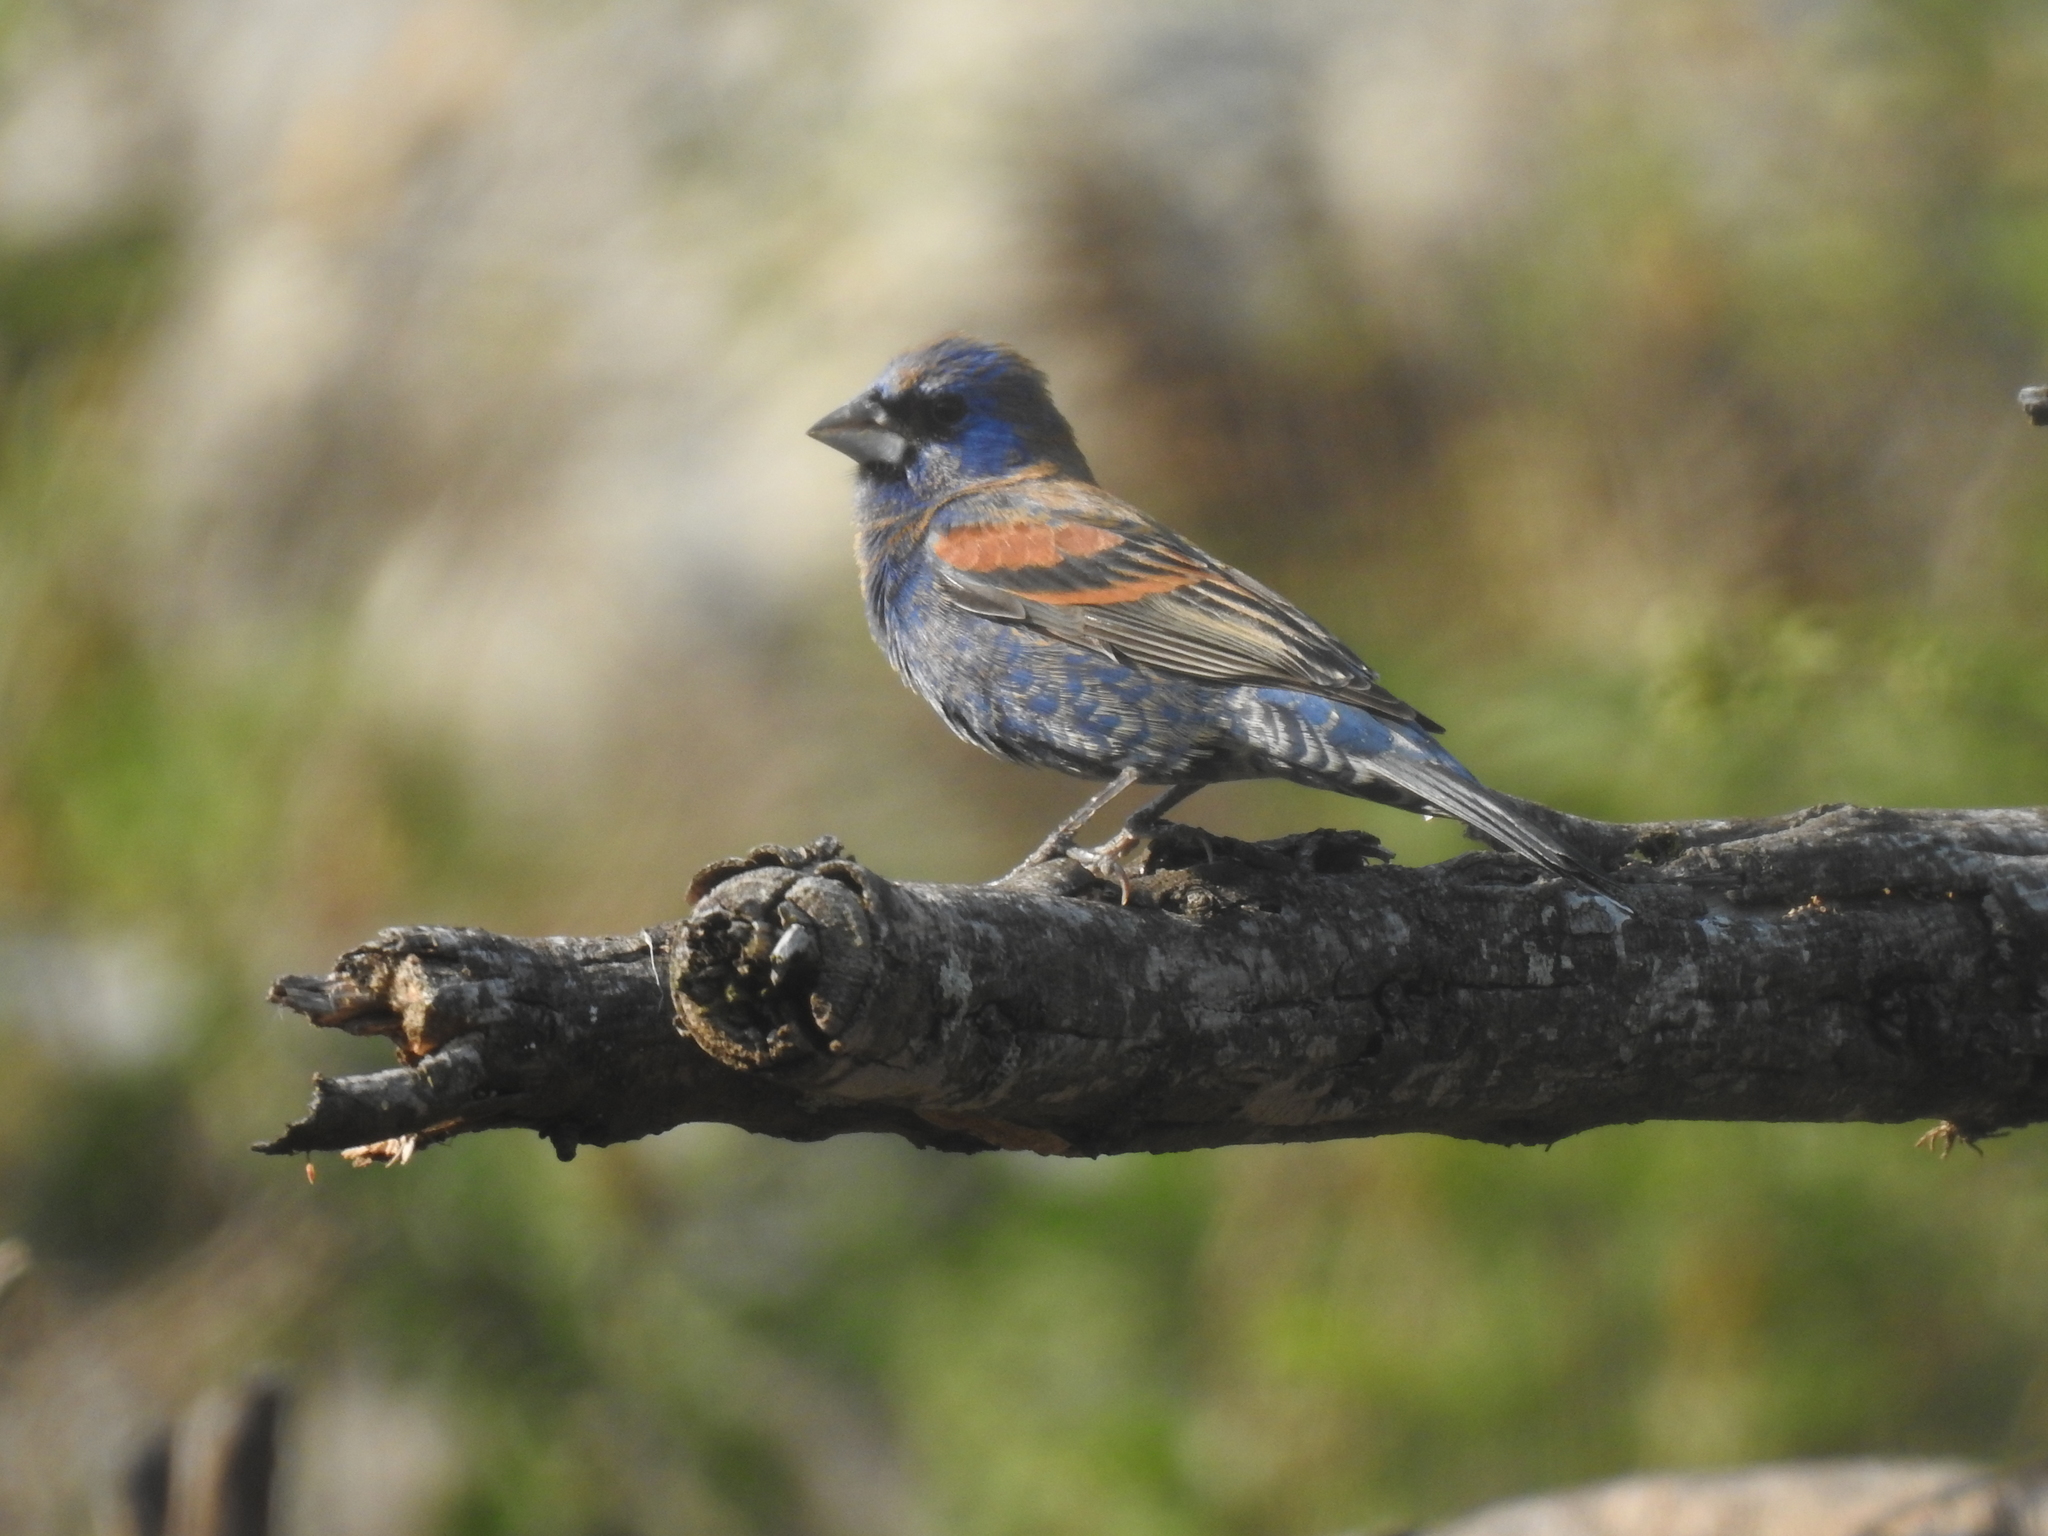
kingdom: Animalia
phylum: Chordata
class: Aves
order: Passeriformes
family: Cardinalidae
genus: Passerina
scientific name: Passerina caerulea
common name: Blue grosbeak
